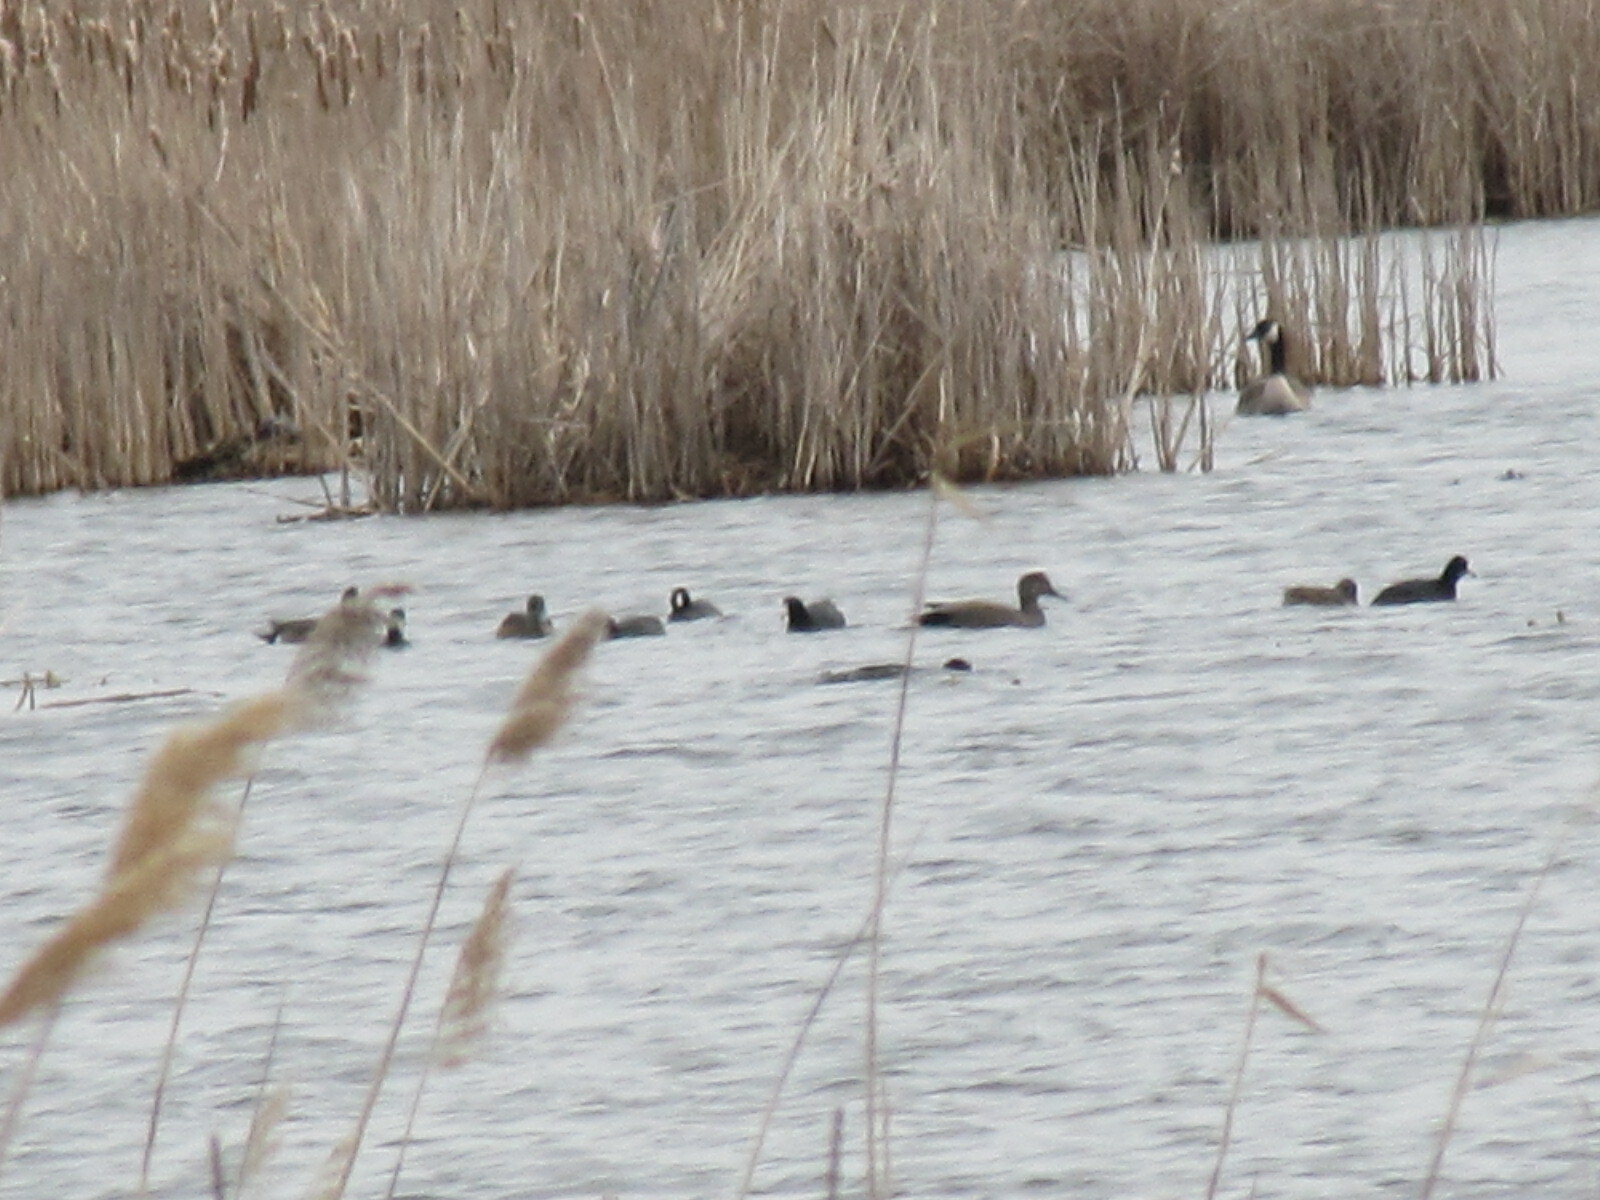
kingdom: Animalia
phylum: Chordata
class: Aves
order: Anseriformes
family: Anatidae
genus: Mareca
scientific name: Mareca strepera
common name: Gadwall
